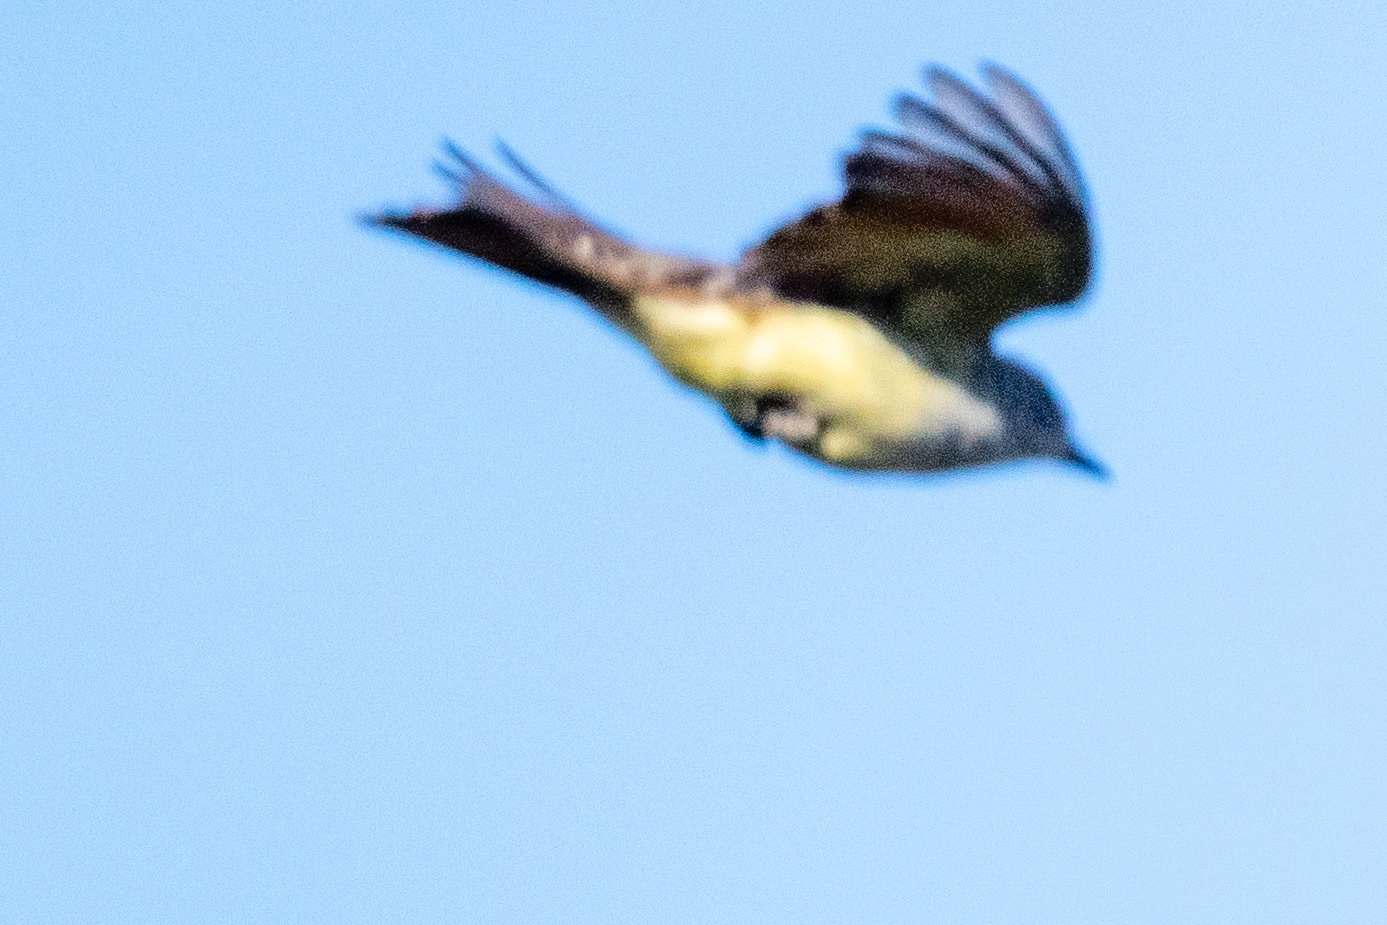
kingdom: Animalia
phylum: Chordata
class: Aves
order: Passeriformes
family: Tyrannidae
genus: Tyrannus
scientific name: Tyrannus verticalis
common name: Western kingbird
